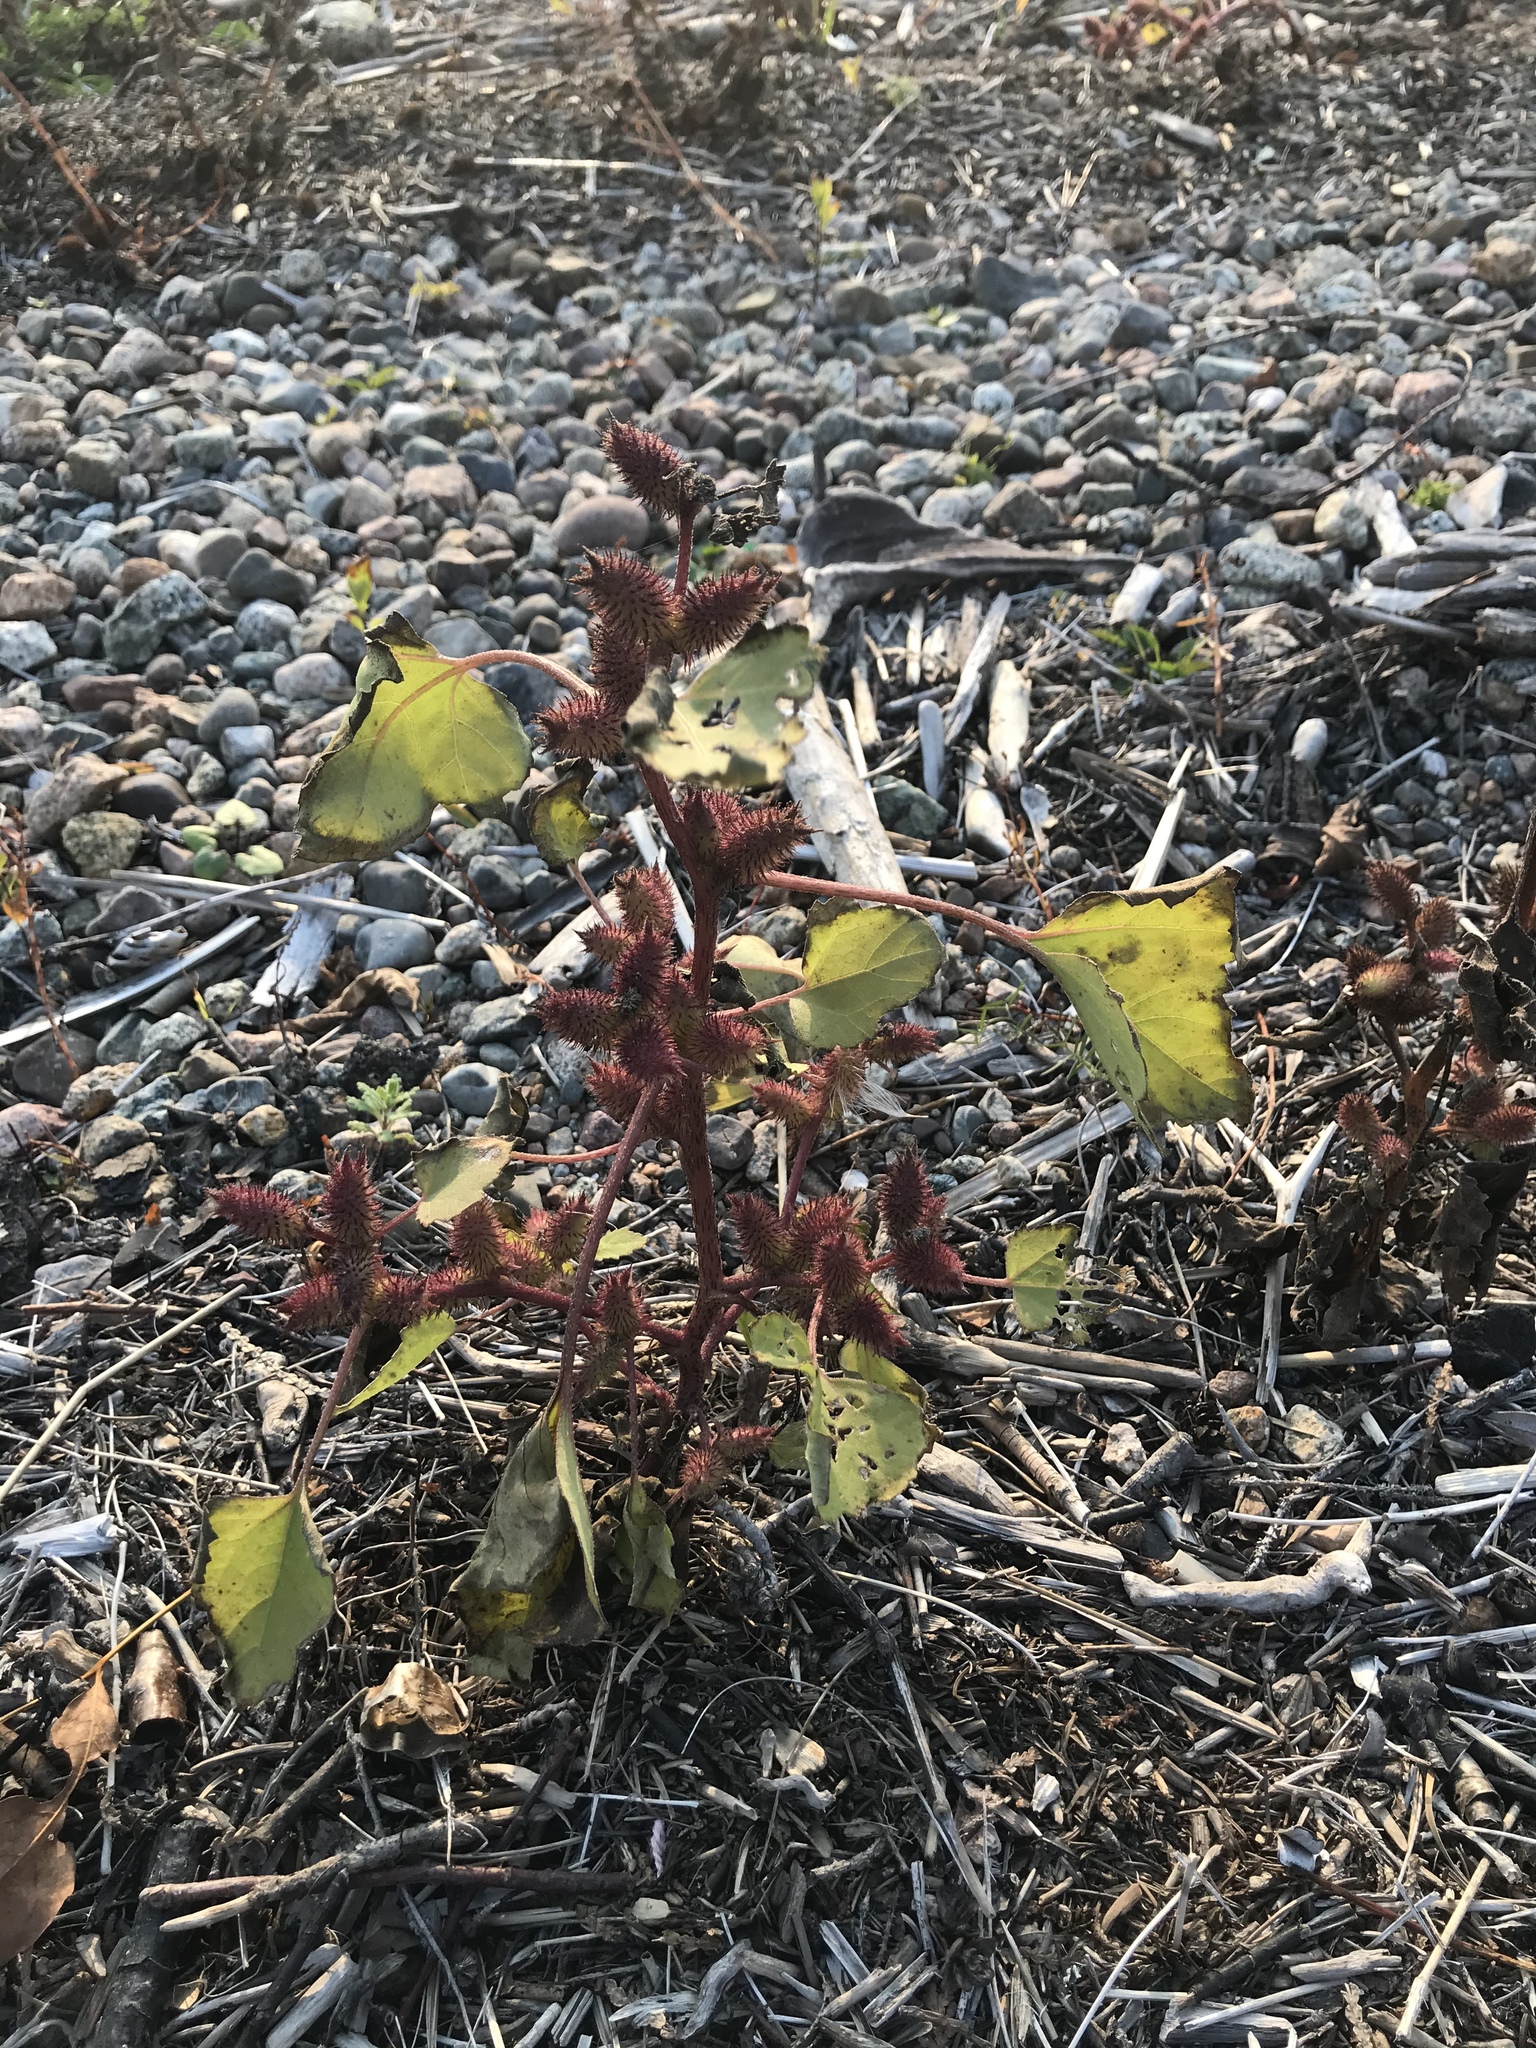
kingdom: Plantae
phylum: Tracheophyta
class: Magnoliopsida
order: Asterales
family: Asteraceae
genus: Xanthium
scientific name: Xanthium strumarium
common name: Rough cocklebur
